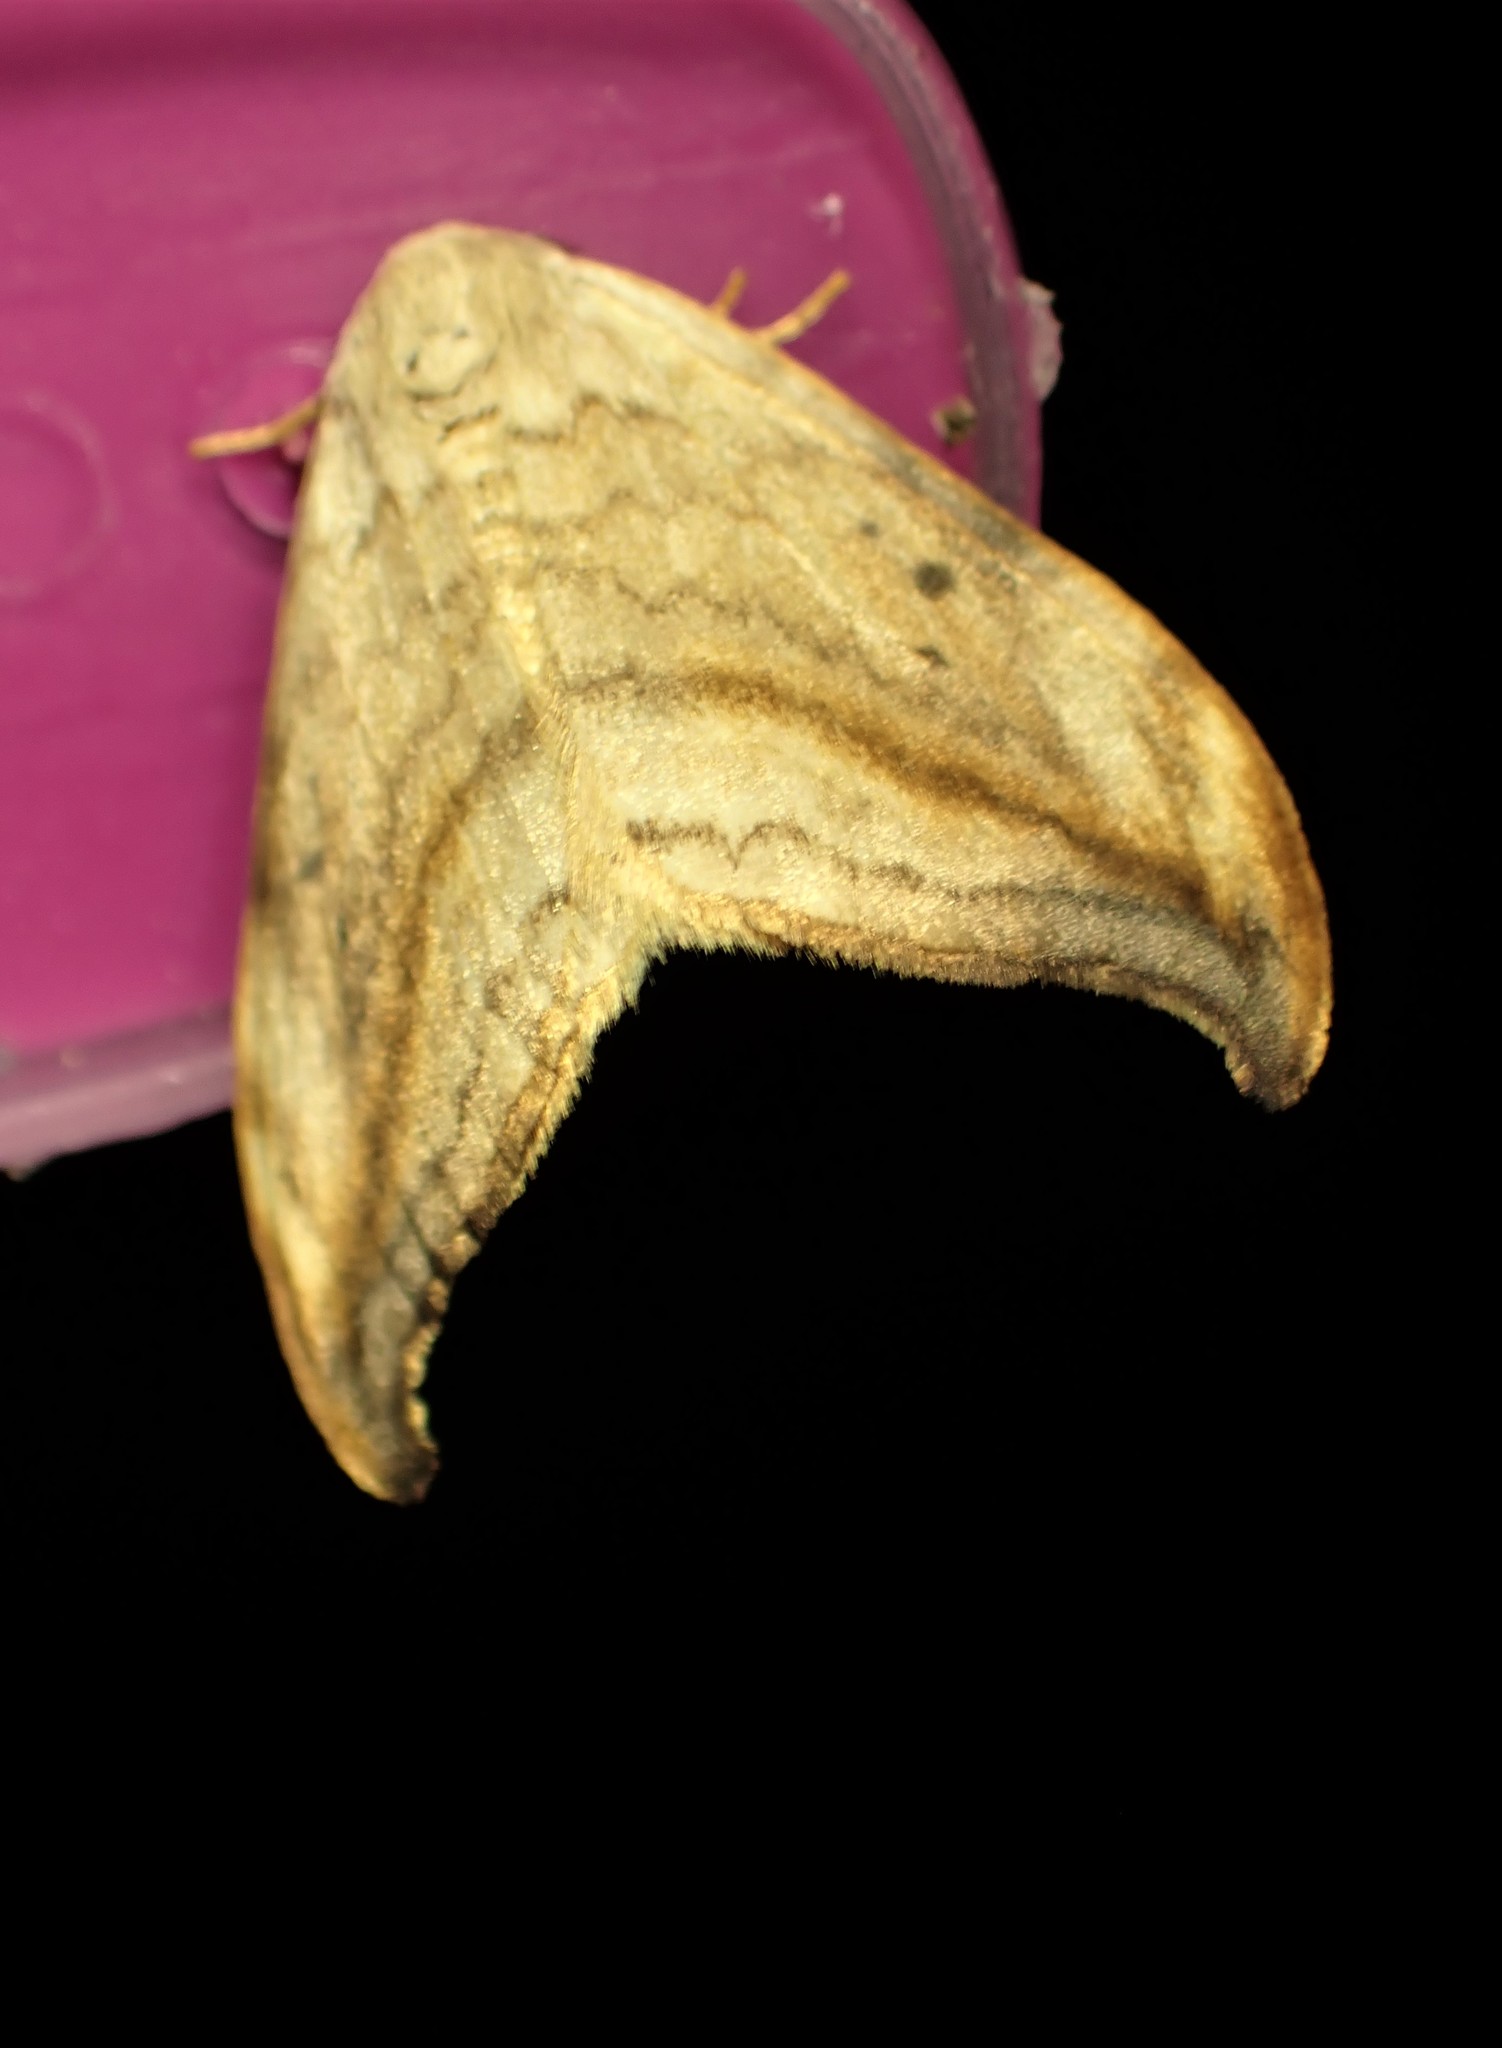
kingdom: Animalia
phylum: Arthropoda
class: Insecta
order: Lepidoptera
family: Drepanidae
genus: Drepana
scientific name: Drepana arcuata
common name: Arched hooktip moth
